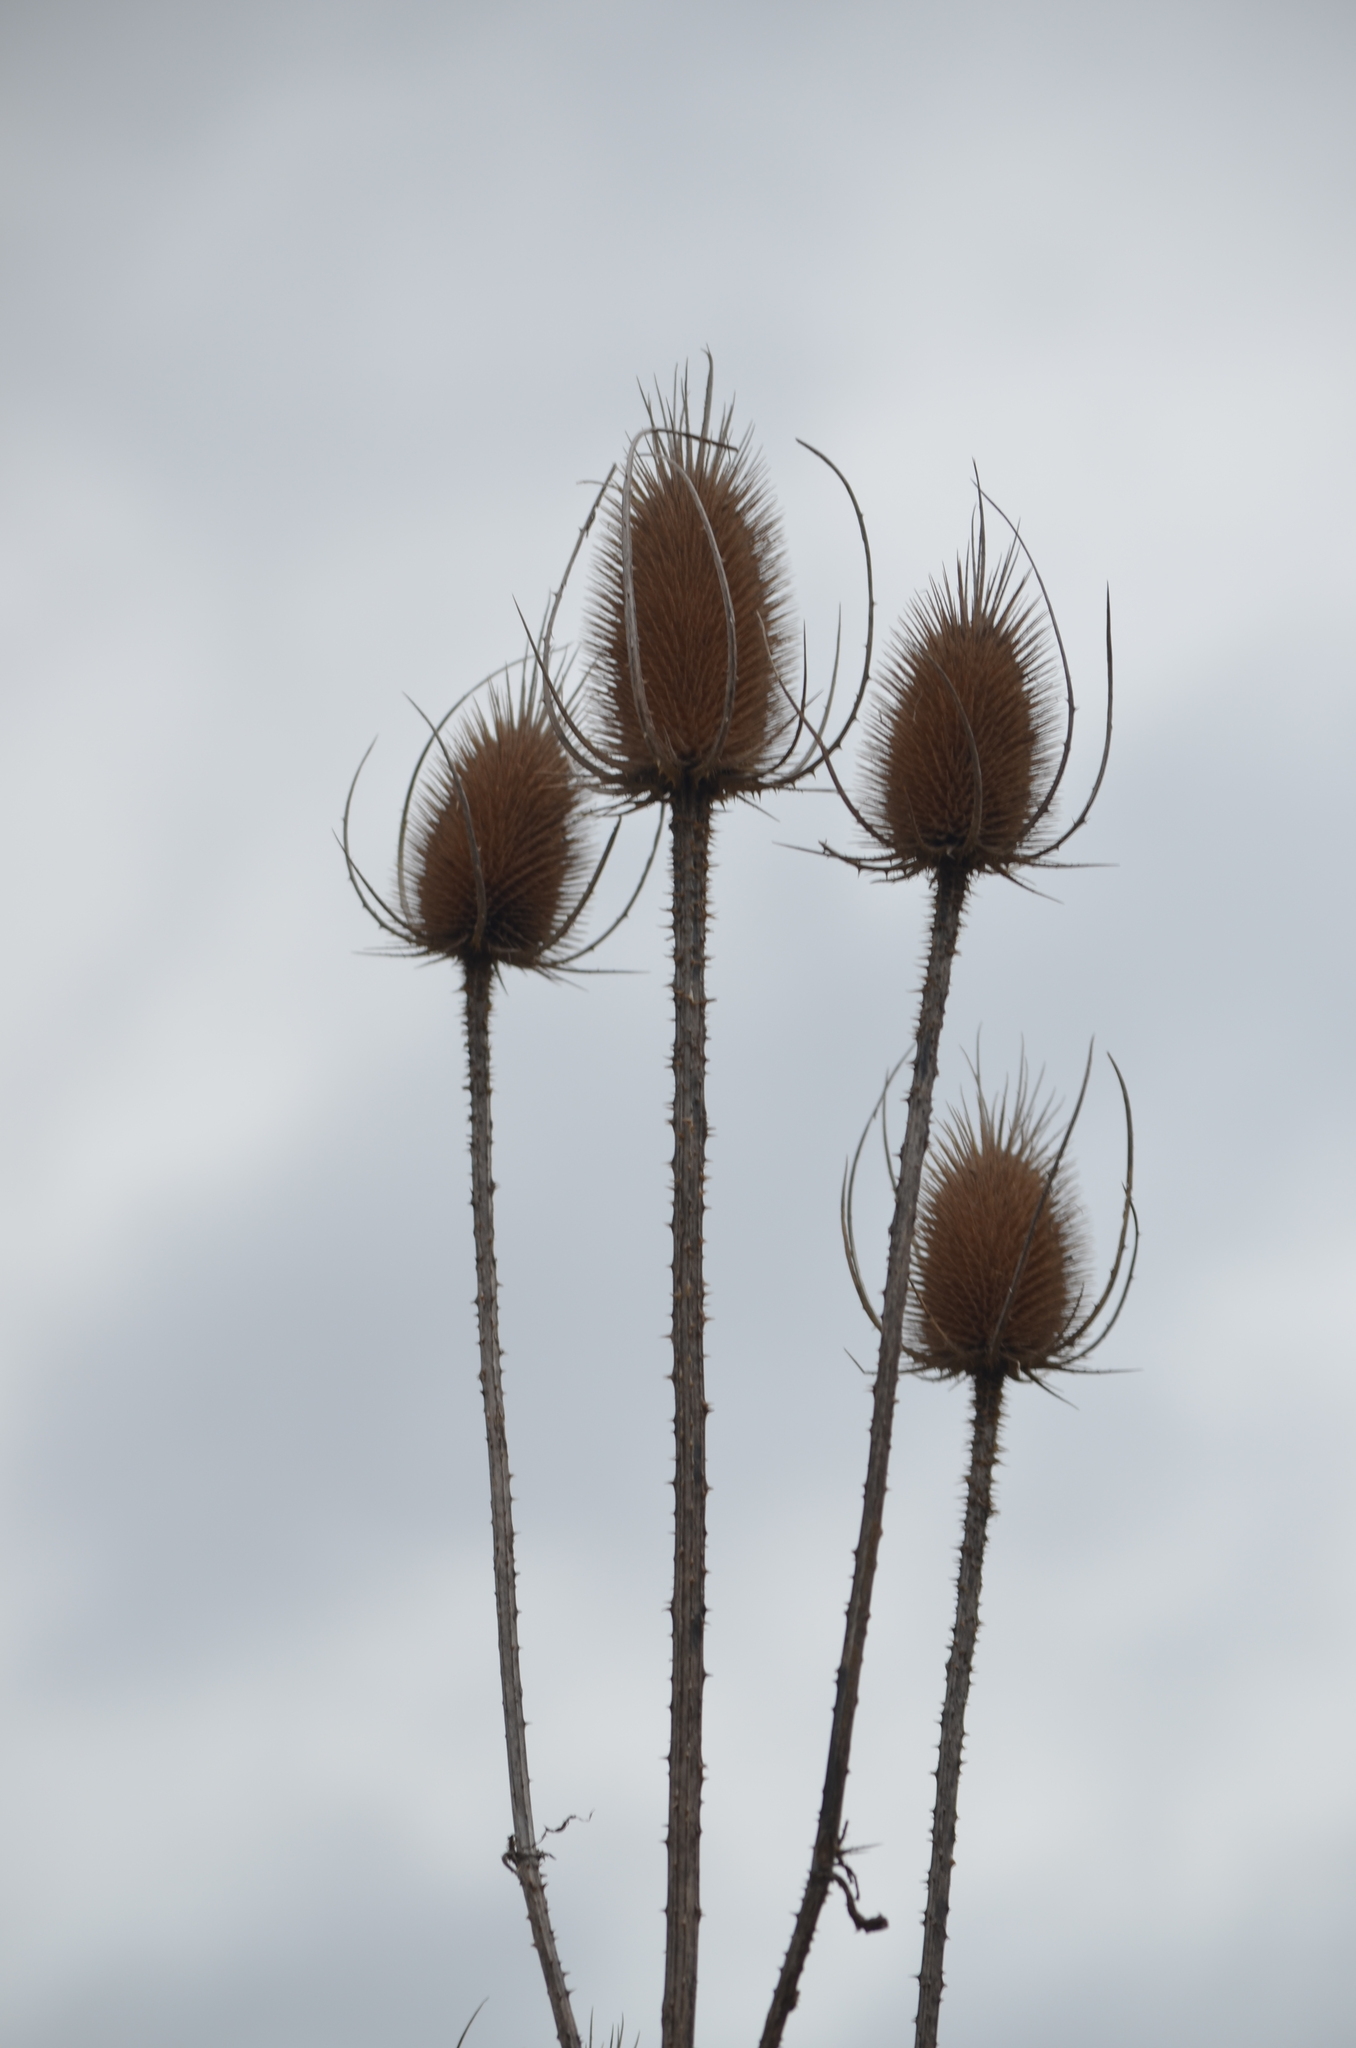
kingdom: Plantae
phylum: Tracheophyta
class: Magnoliopsida
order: Dipsacales
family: Caprifoliaceae
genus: Dipsacus
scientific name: Dipsacus fullonum
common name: Teasel
